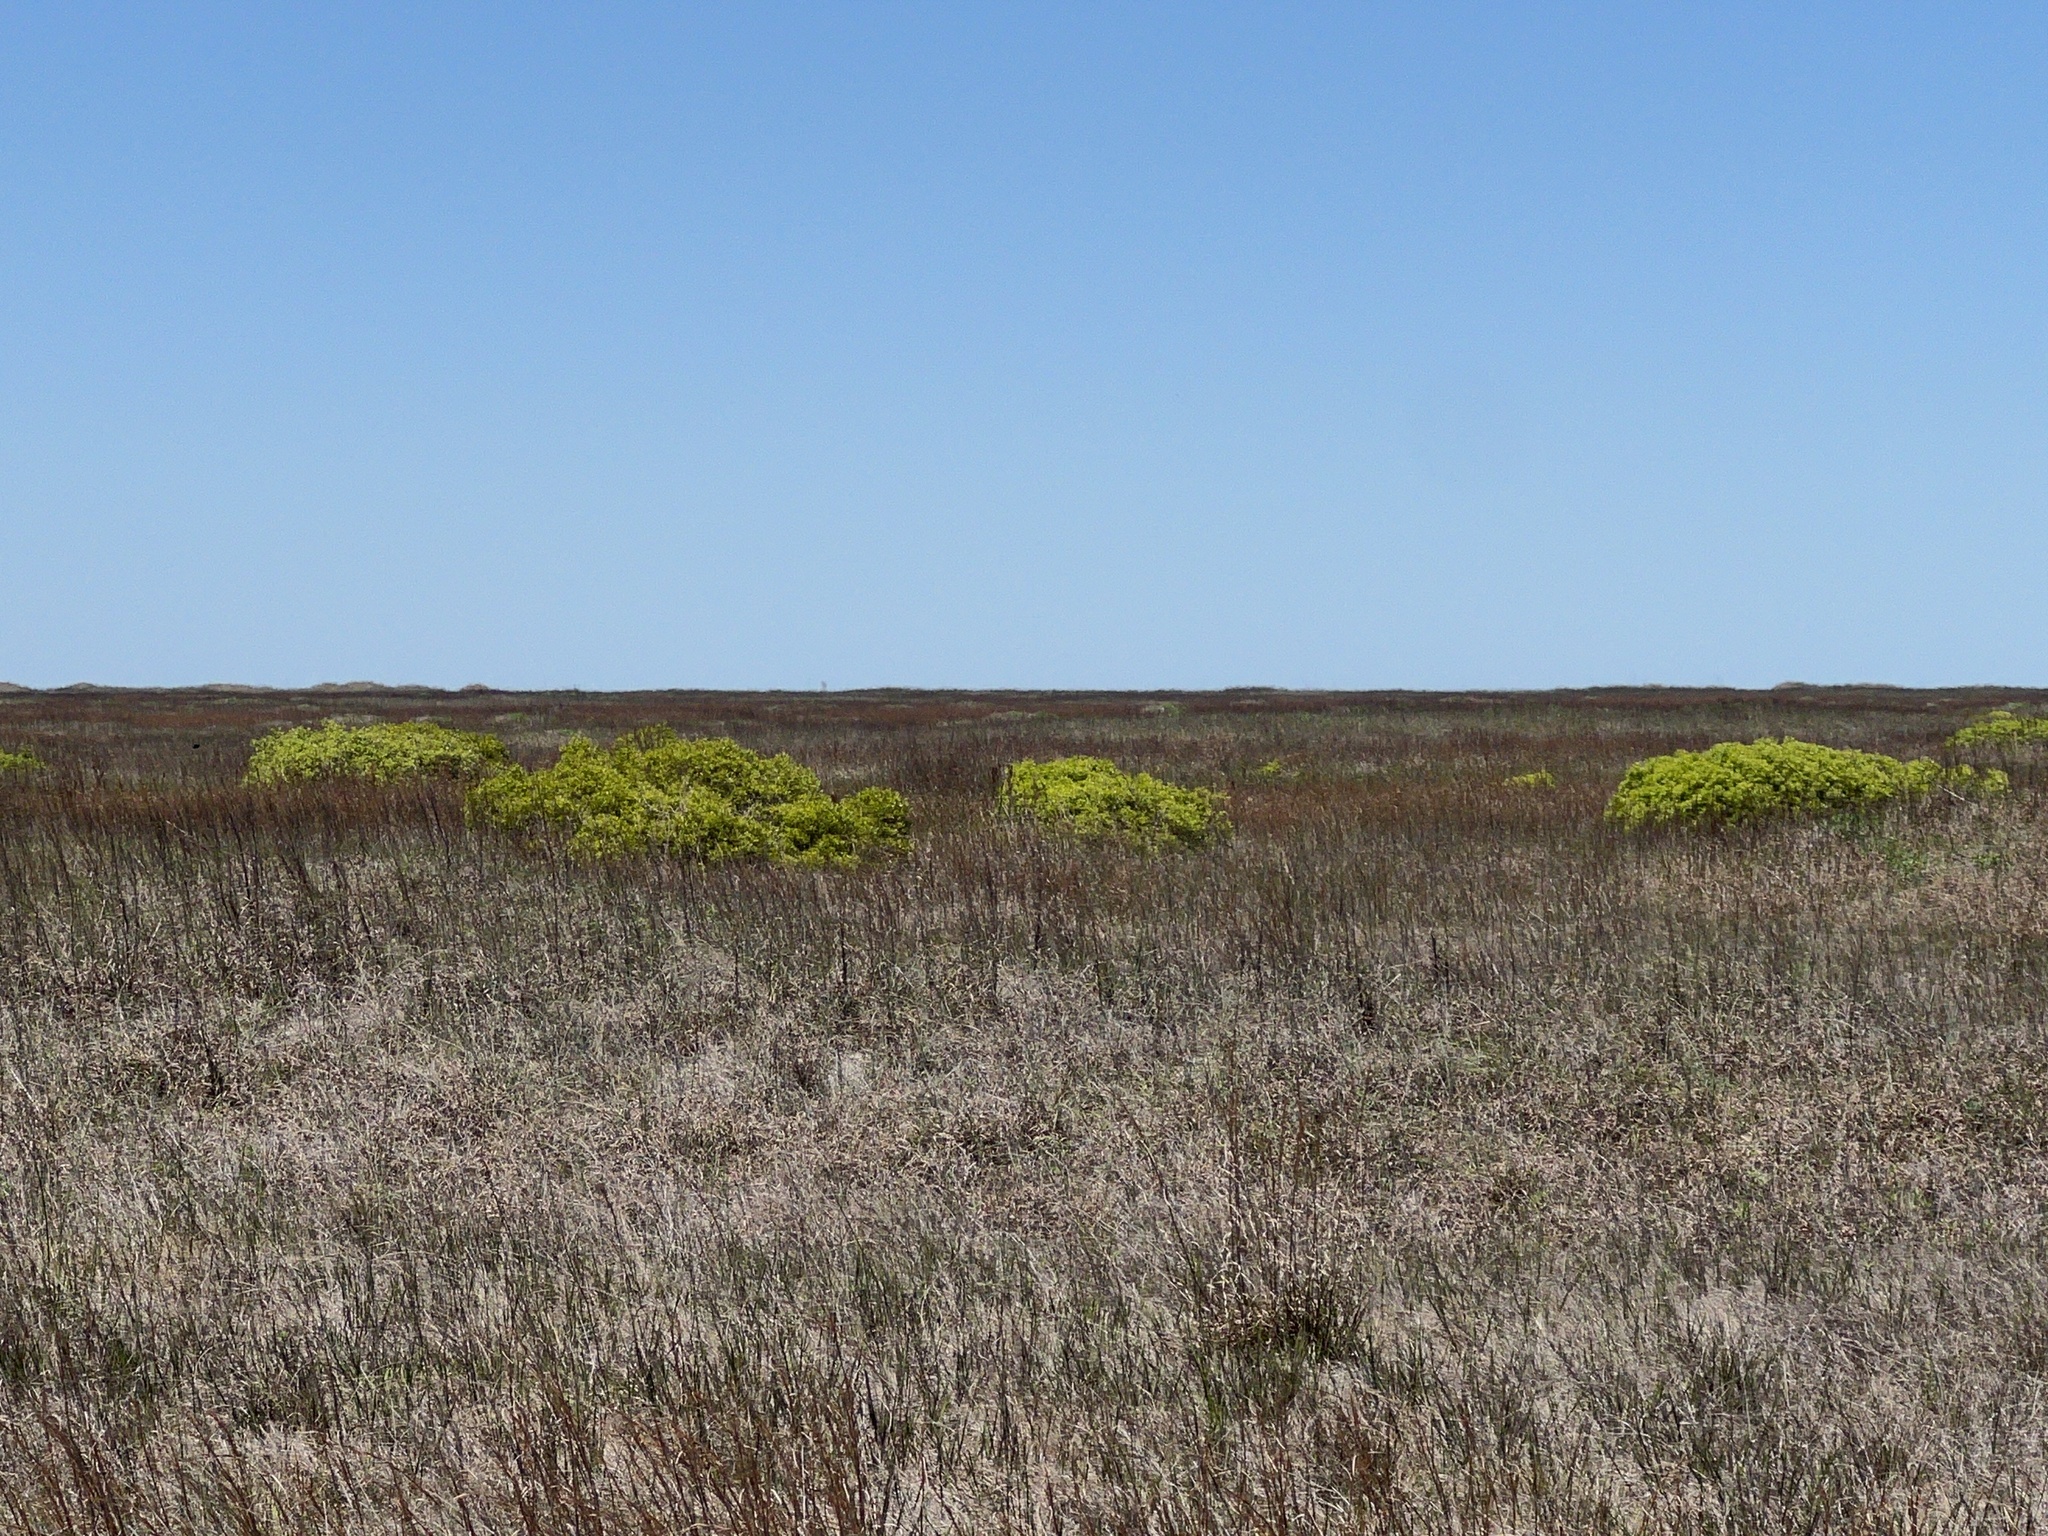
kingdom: Plantae
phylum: Tracheophyta
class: Magnoliopsida
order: Fagales
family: Myricaceae
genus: Morella
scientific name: Morella cerifera
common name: Wax myrtle
